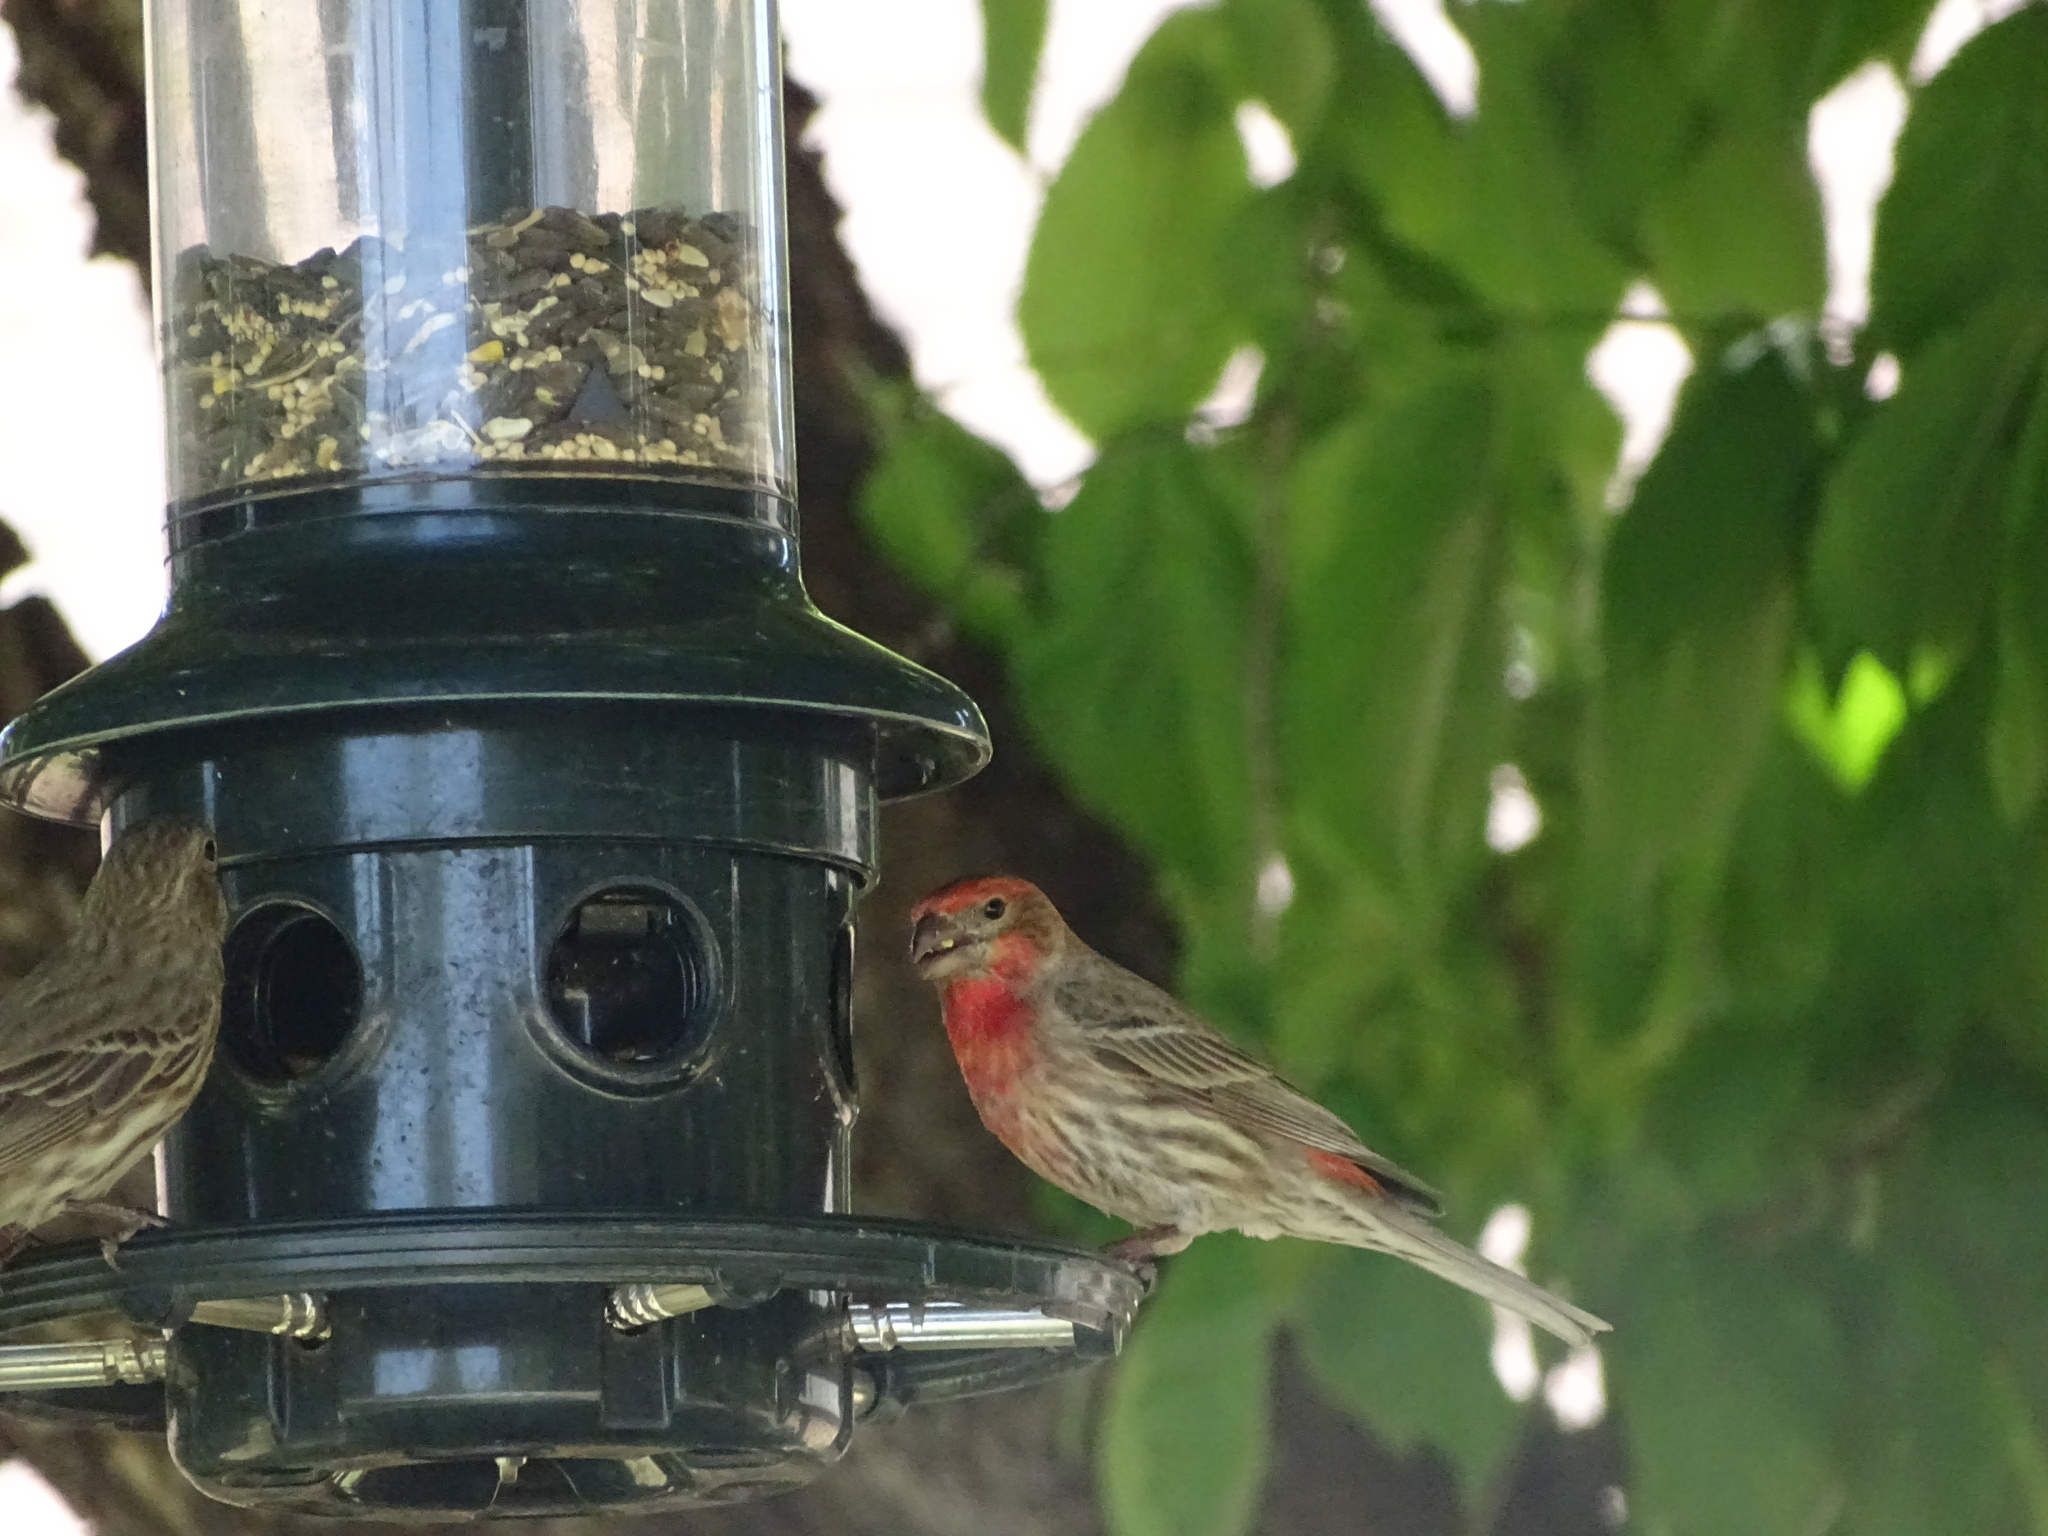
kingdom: Animalia
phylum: Chordata
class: Aves
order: Passeriformes
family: Fringillidae
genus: Haemorhous
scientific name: Haemorhous mexicanus
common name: House finch
